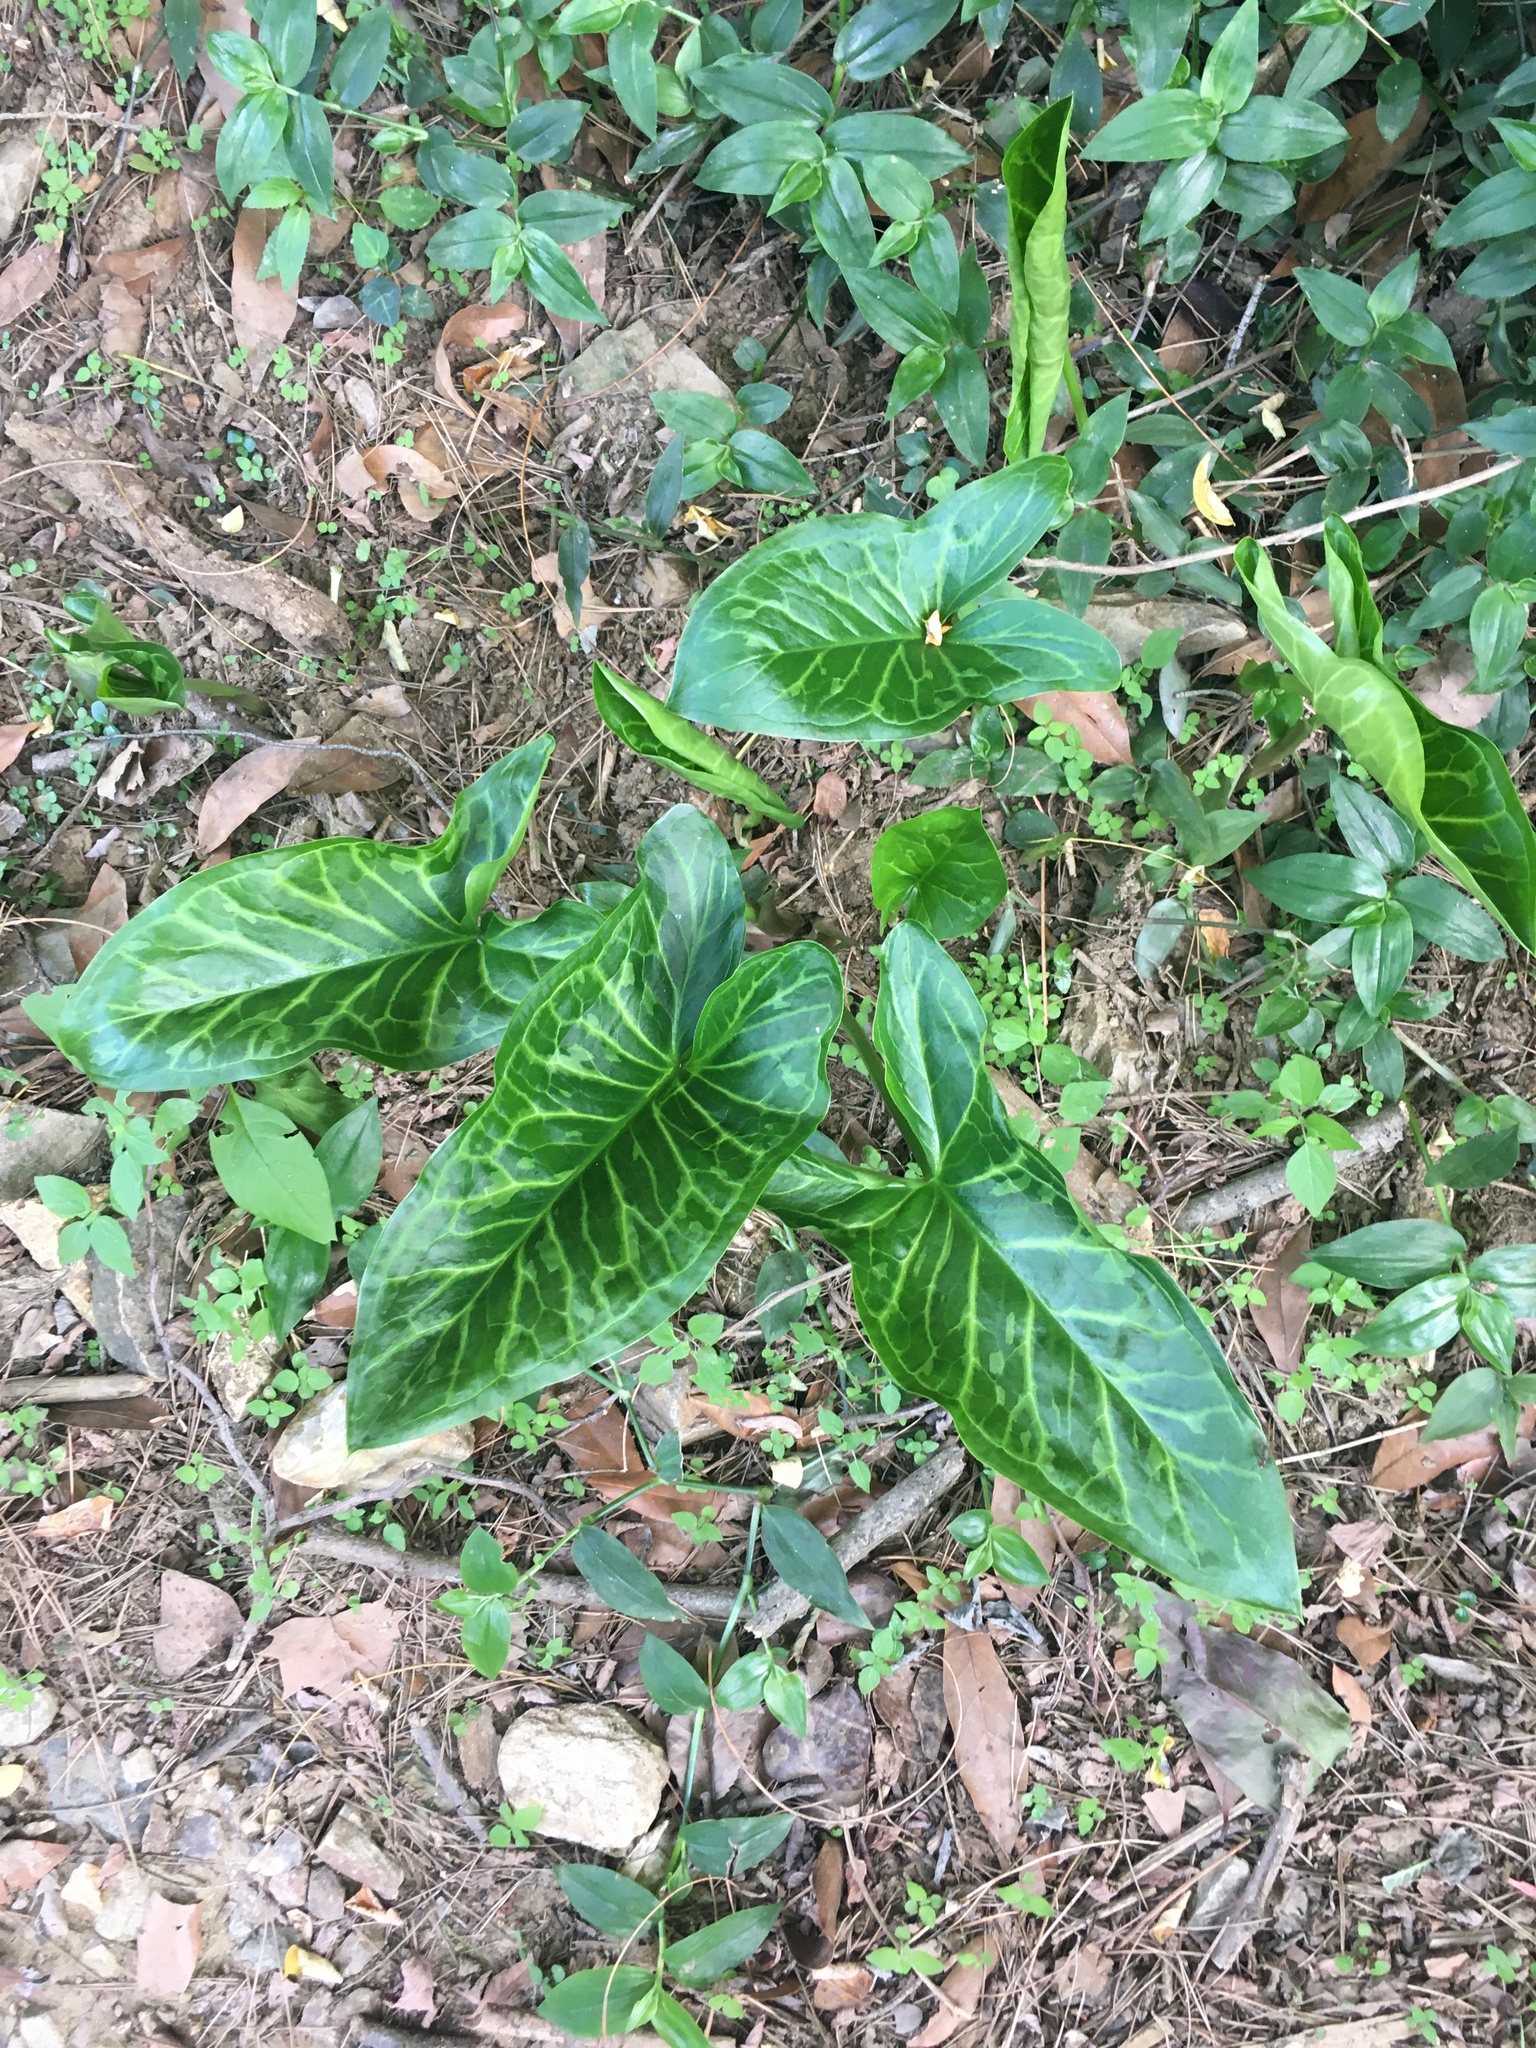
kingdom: Plantae
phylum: Tracheophyta
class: Liliopsida
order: Alismatales
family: Araceae
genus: Arum
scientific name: Arum italicum
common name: Italian lords-and-ladies
